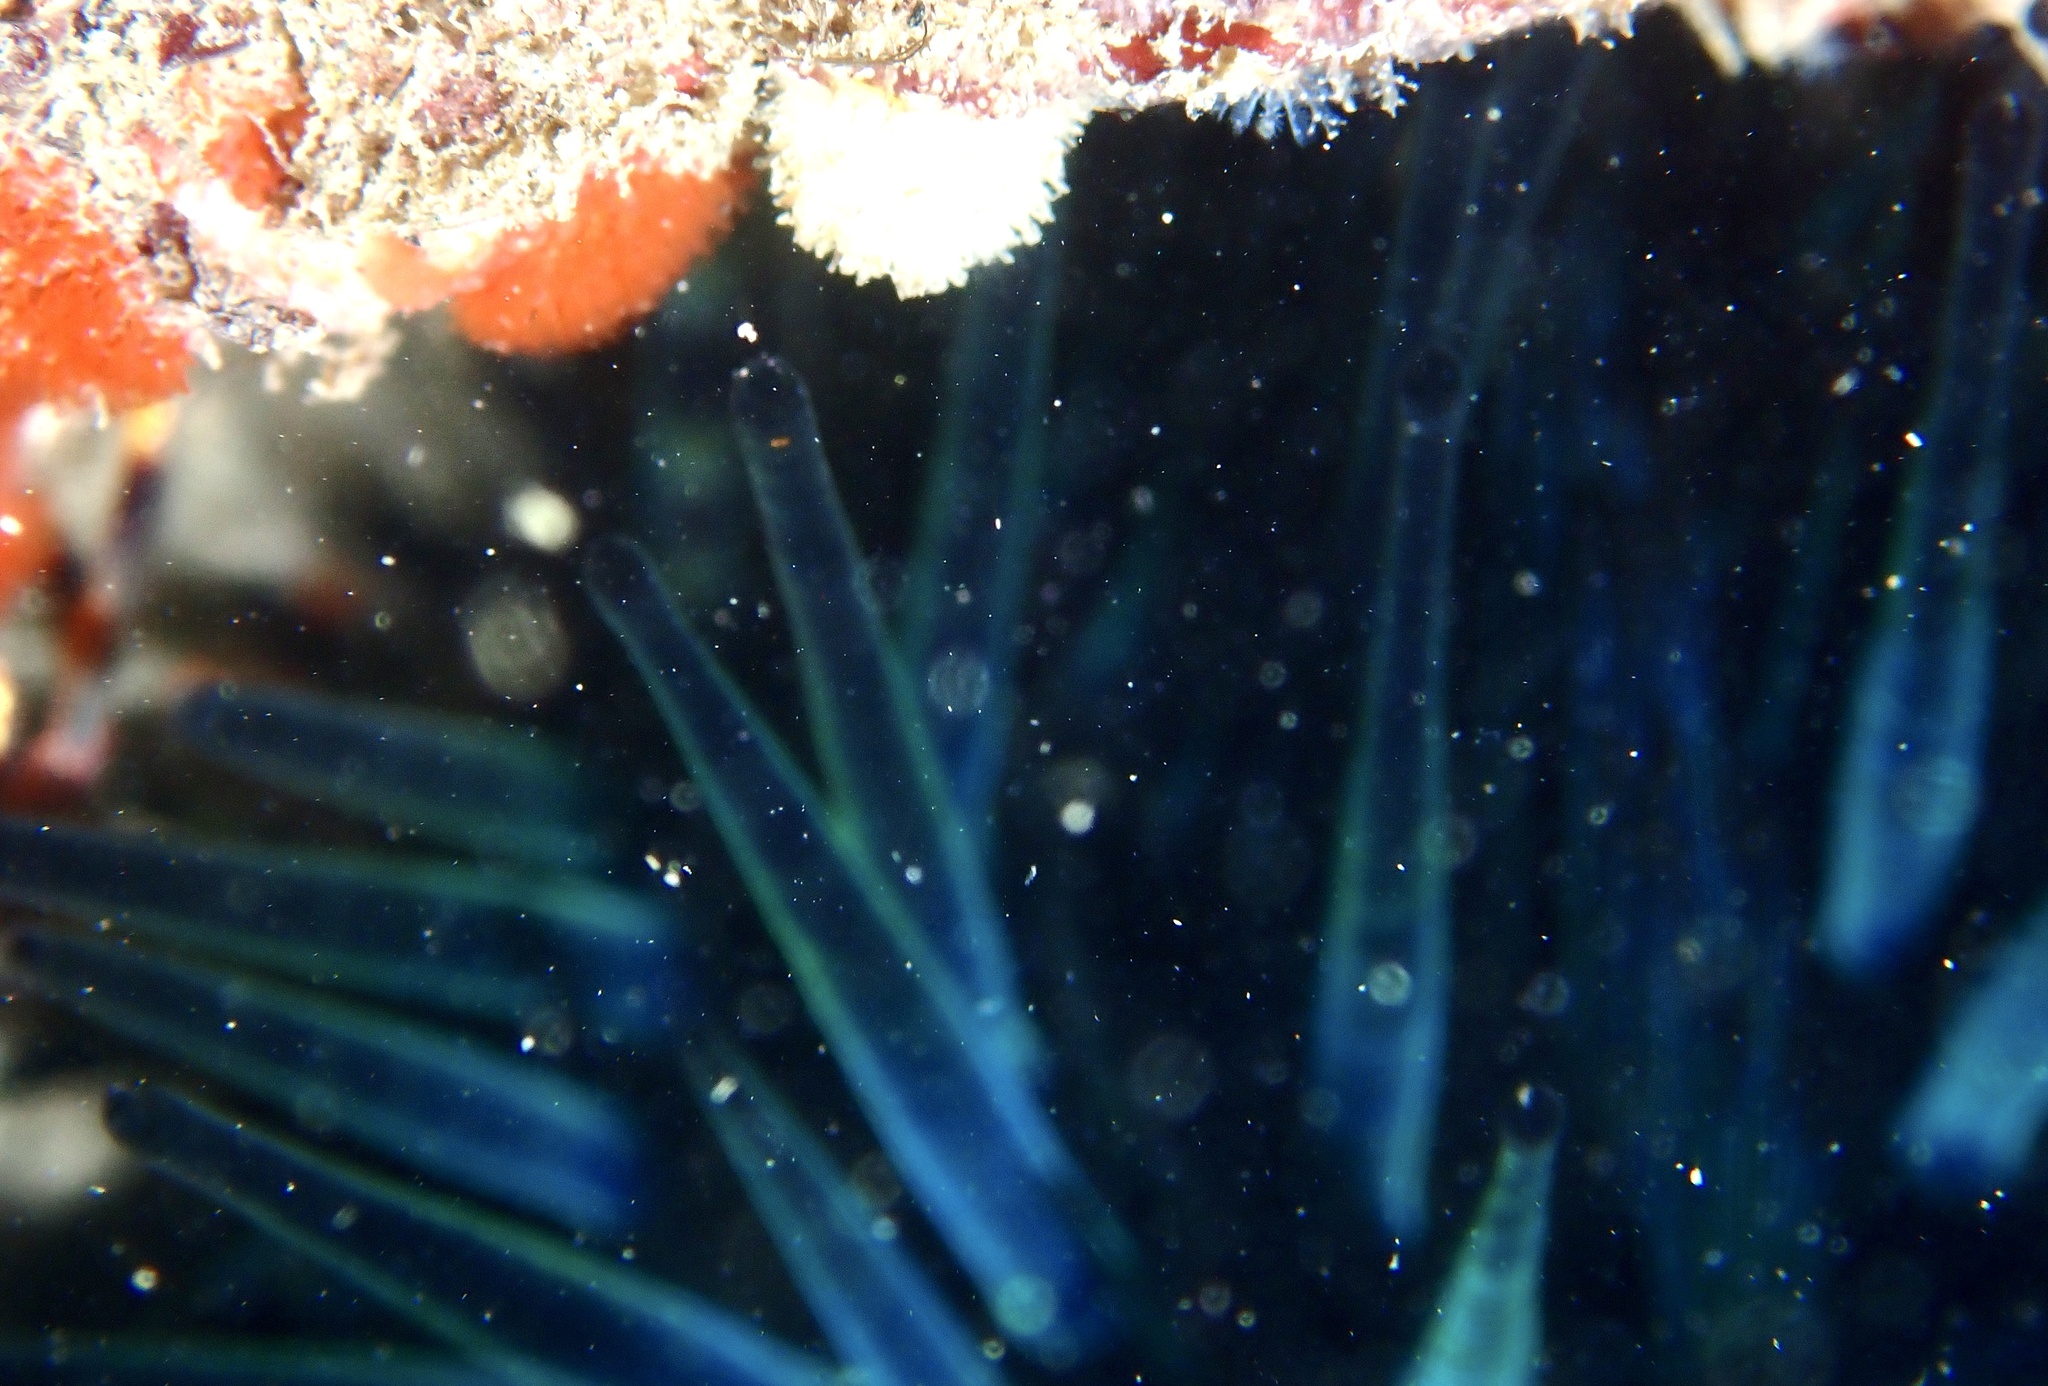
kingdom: Animalia
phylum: Echinodermata
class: Echinoidea
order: Diadematoida
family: Diadematidae
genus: Echinothrix
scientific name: Echinothrix diadema
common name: Schwarzer diademseeigel
